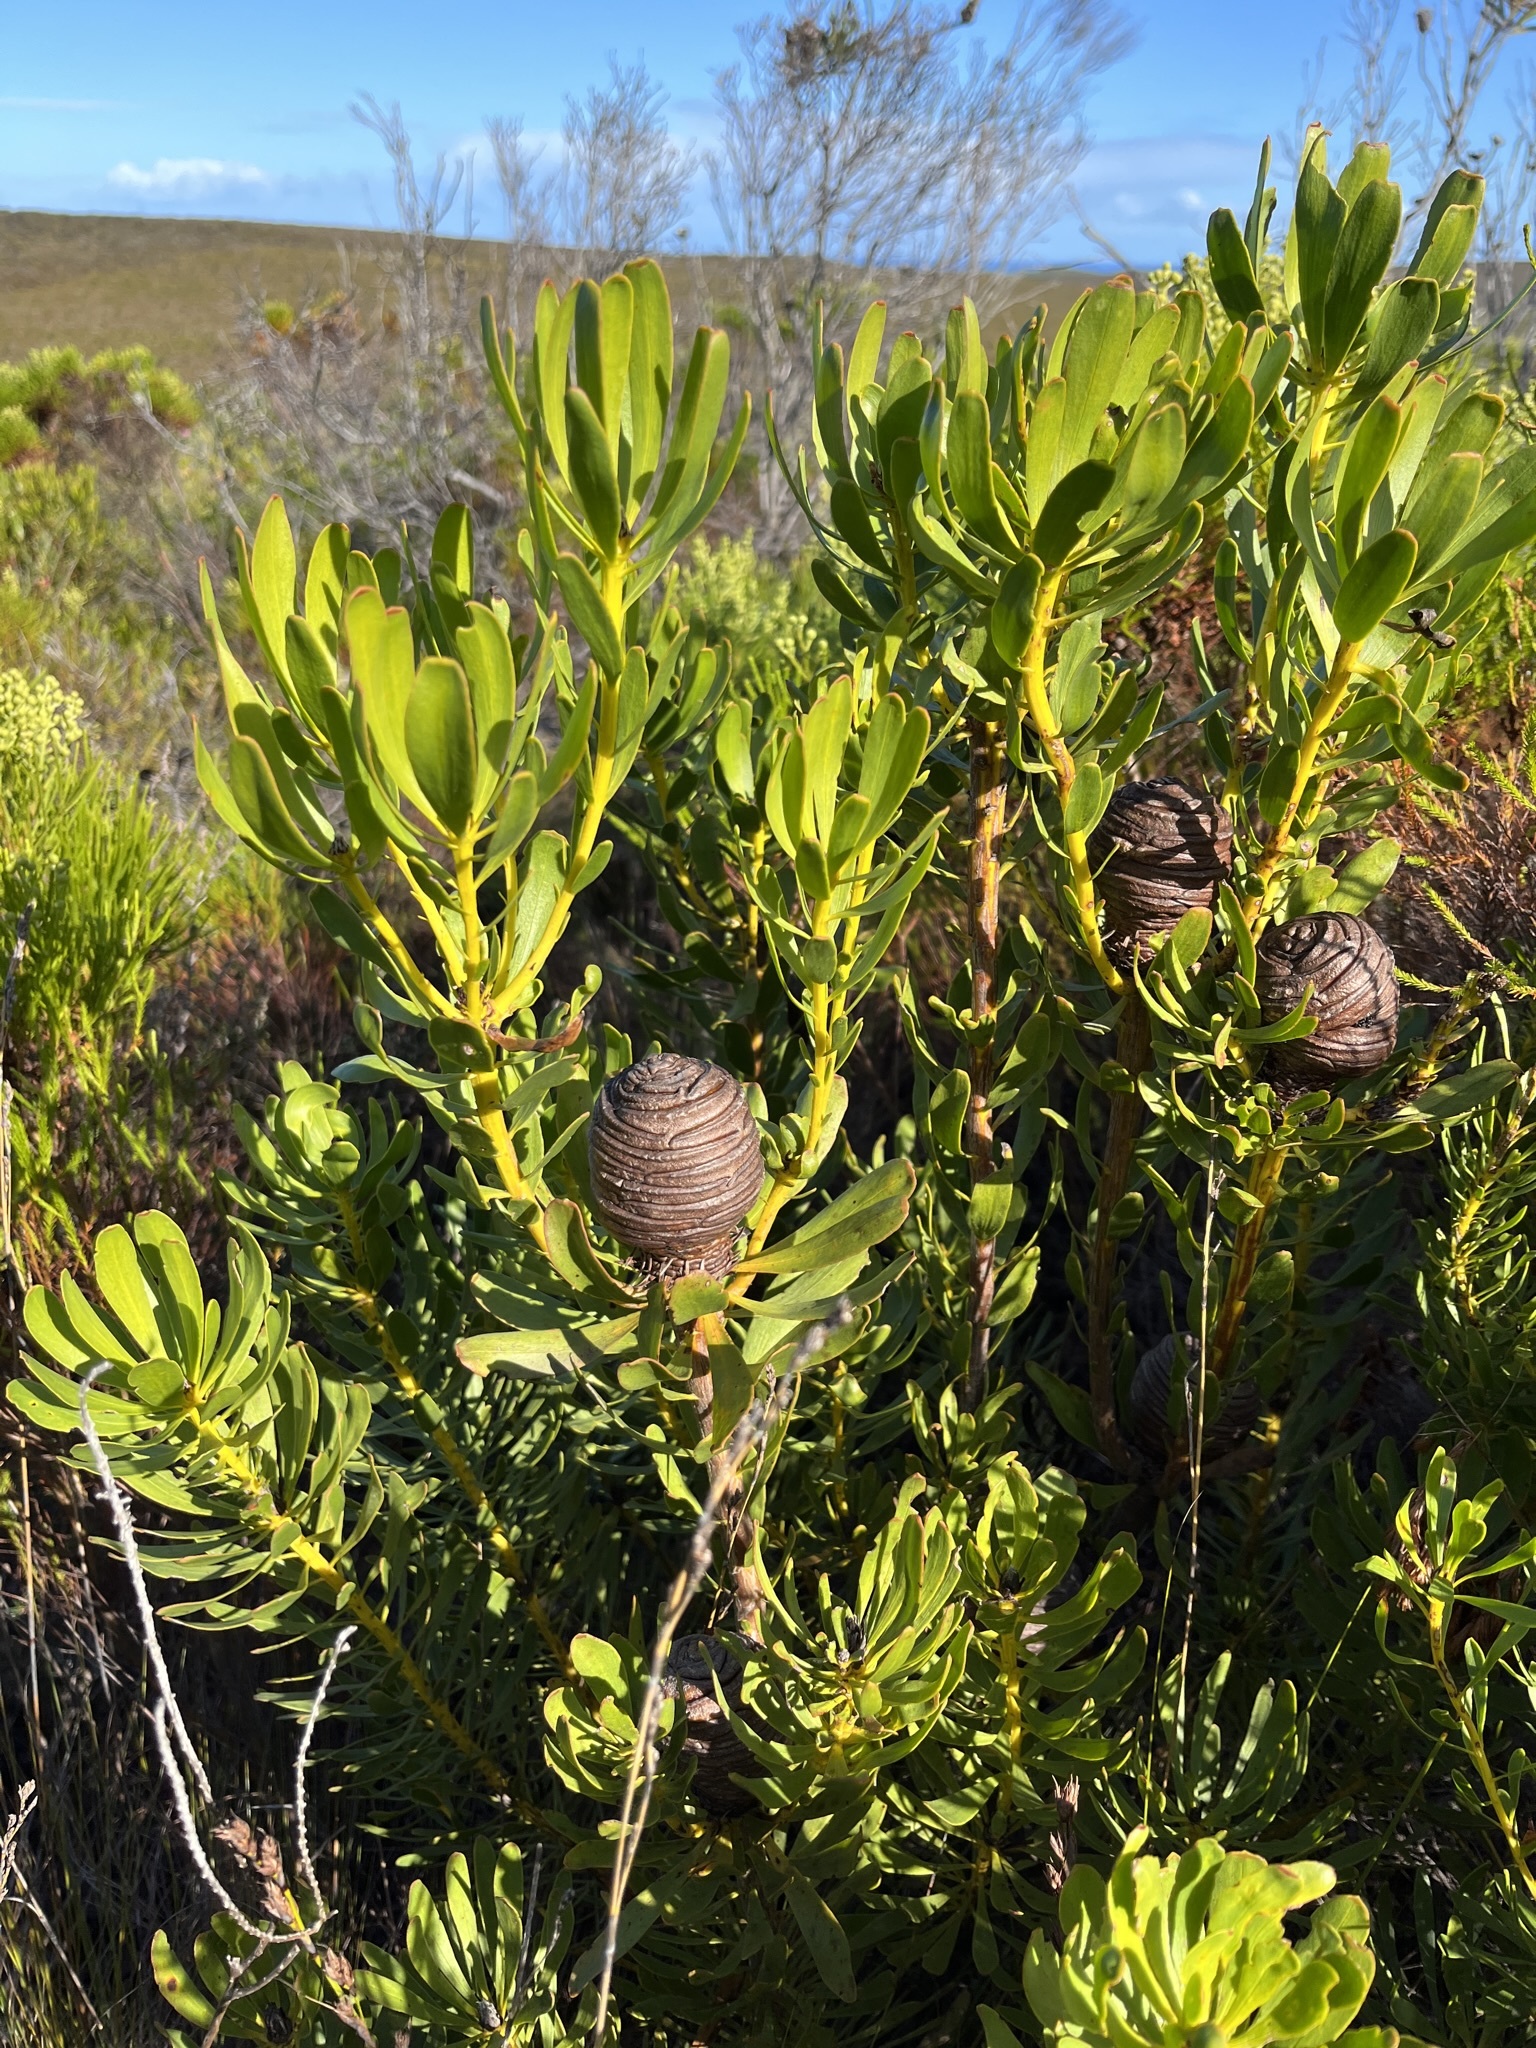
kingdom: Plantae
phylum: Tracheophyta
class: Magnoliopsida
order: Proteales
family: Proteaceae
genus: Leucadendron
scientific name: Leucadendron platyspermum
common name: Plate-seed conebush
